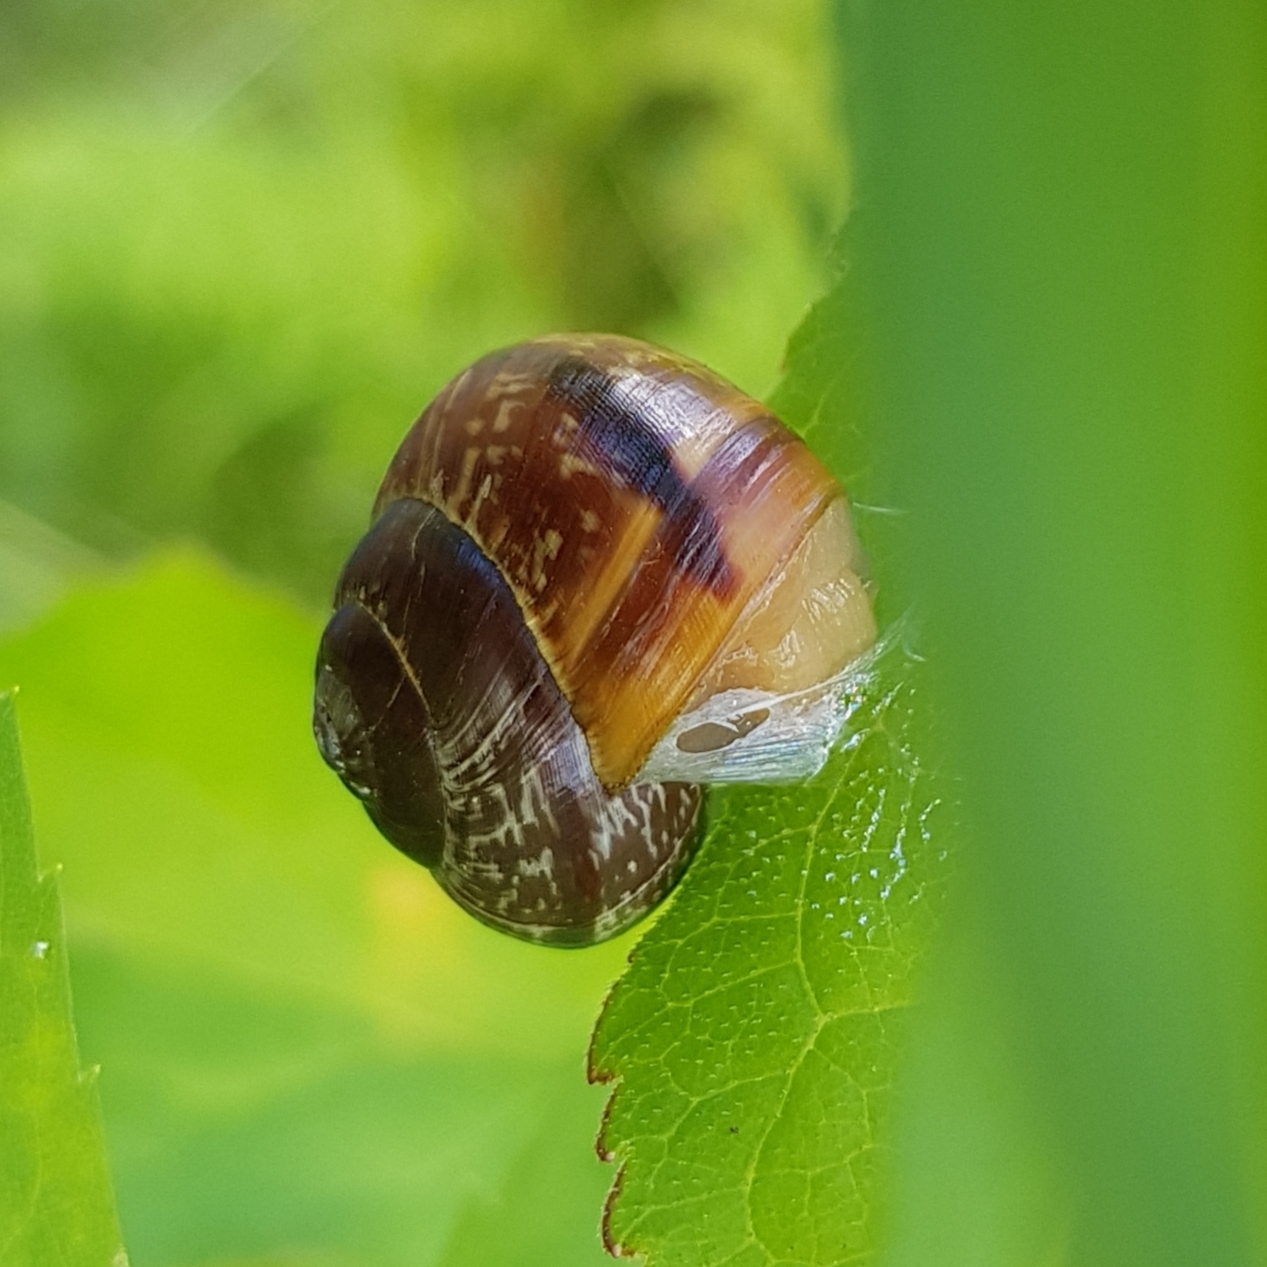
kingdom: Animalia
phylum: Mollusca
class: Gastropoda
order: Stylommatophora
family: Helicidae
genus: Arianta
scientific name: Arianta arbustorum
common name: Copse snail
